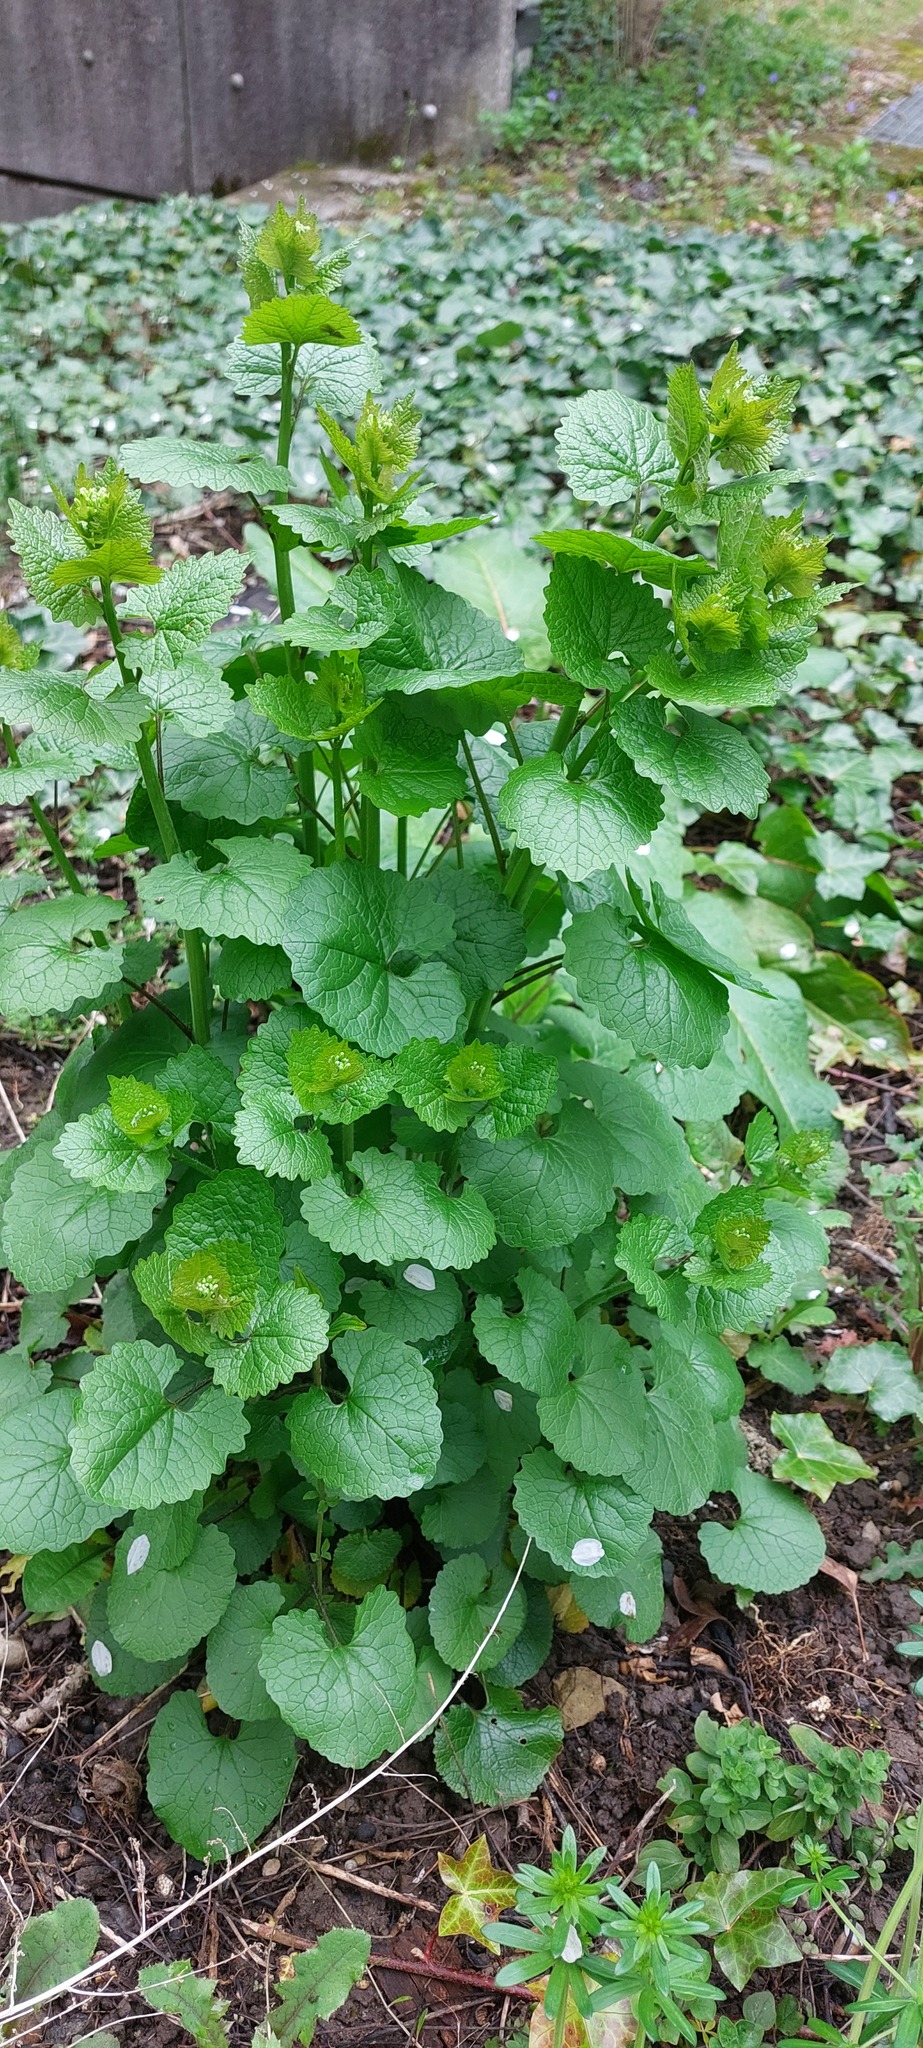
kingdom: Plantae
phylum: Tracheophyta
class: Magnoliopsida
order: Brassicales
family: Brassicaceae
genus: Alliaria
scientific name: Alliaria petiolata
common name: Garlic mustard
